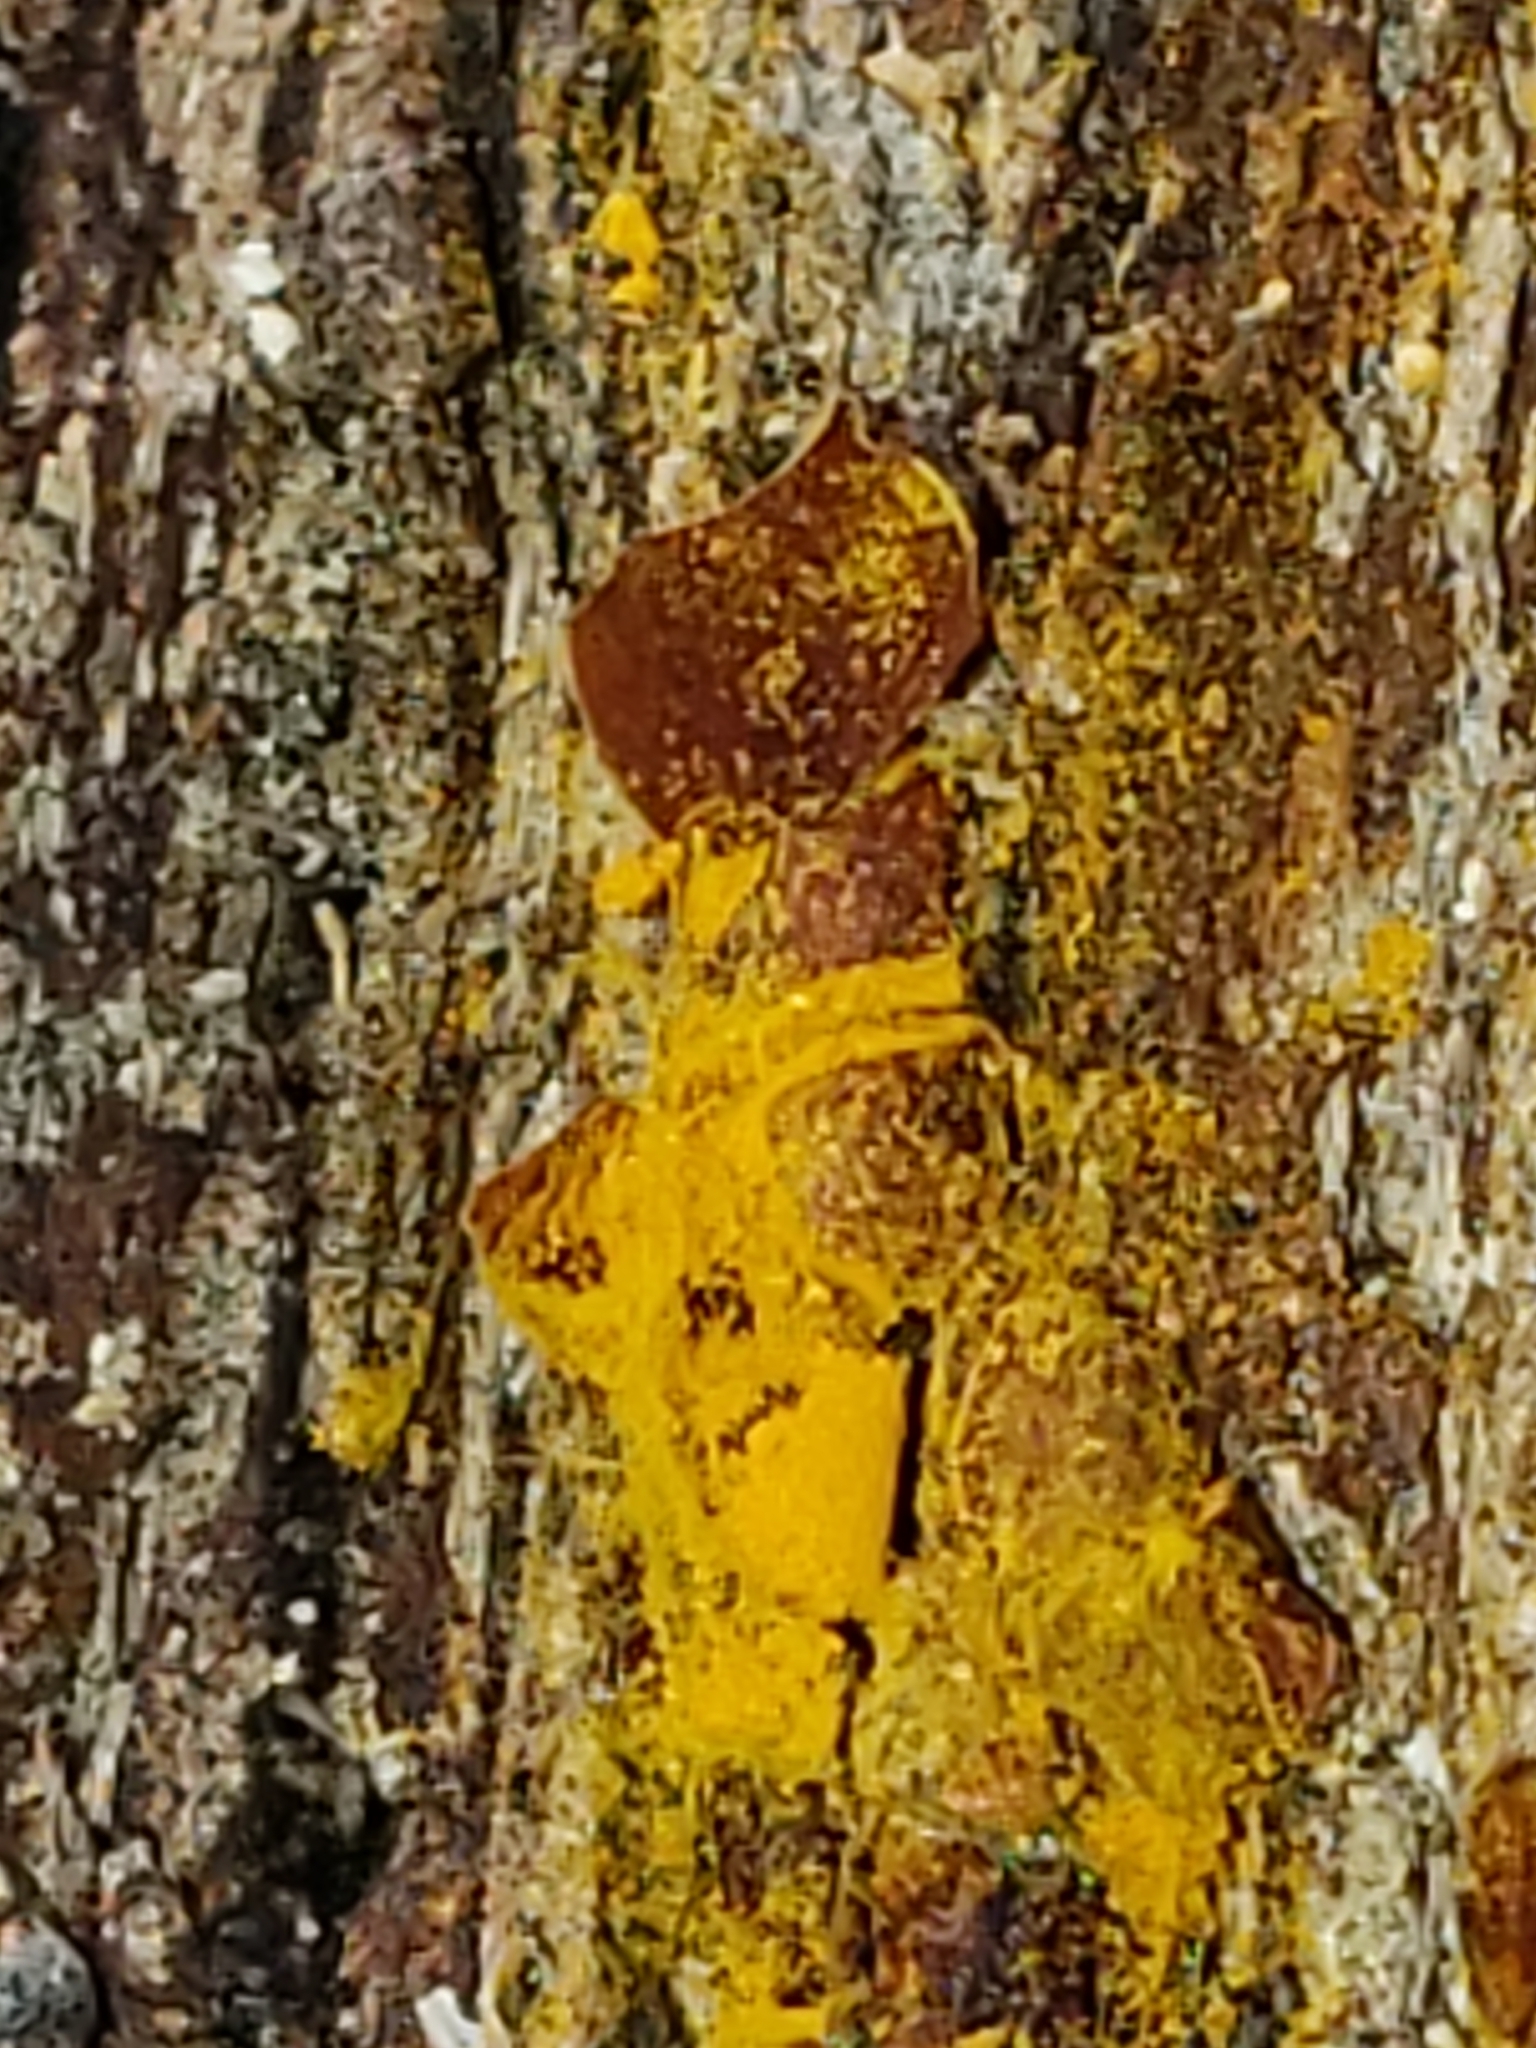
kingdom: Protozoa
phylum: Mycetozoa
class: Myxomycetes
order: Trichiales
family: Trichiaceae
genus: Perichaena
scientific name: Perichaena depressa
